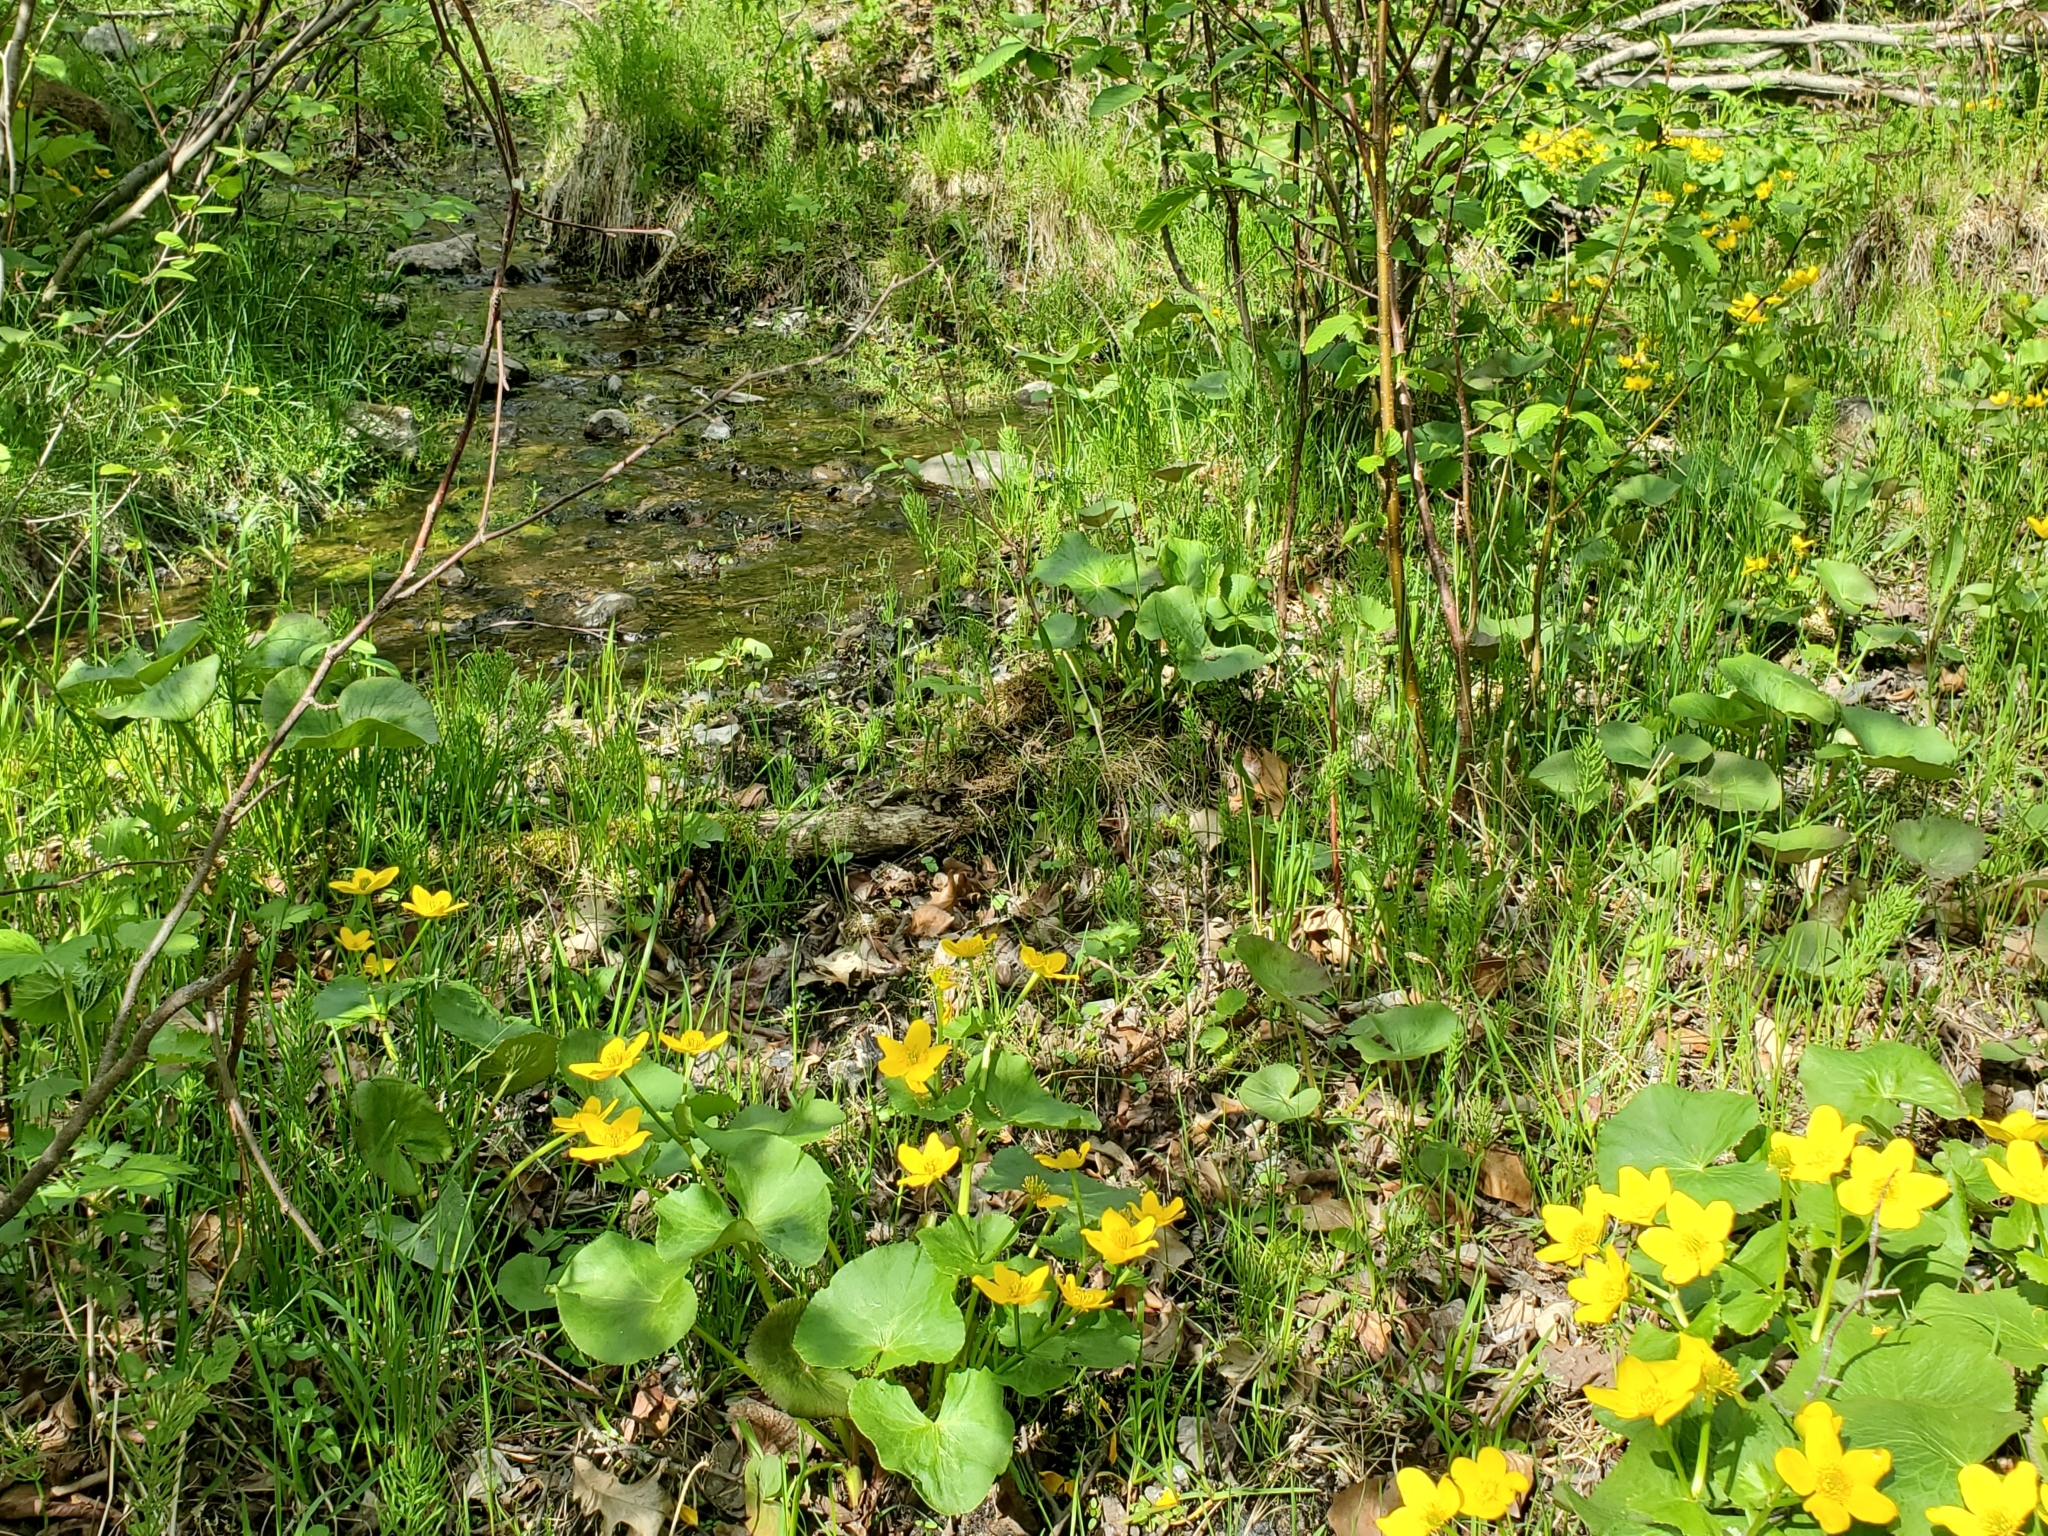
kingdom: Plantae
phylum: Tracheophyta
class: Magnoliopsida
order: Ranunculales
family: Ranunculaceae
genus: Caltha
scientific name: Caltha palustris
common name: Marsh marigold
